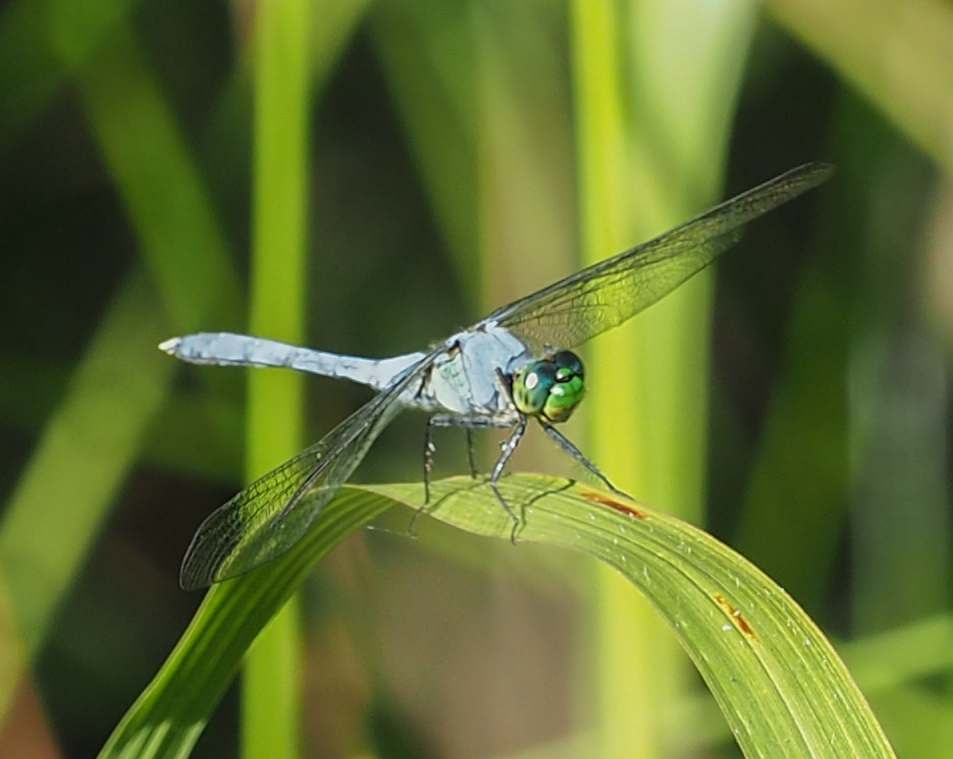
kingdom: Animalia
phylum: Arthropoda
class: Insecta
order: Odonata
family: Libellulidae
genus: Erythemis
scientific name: Erythemis simplicicollis
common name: Eastern pondhawk
